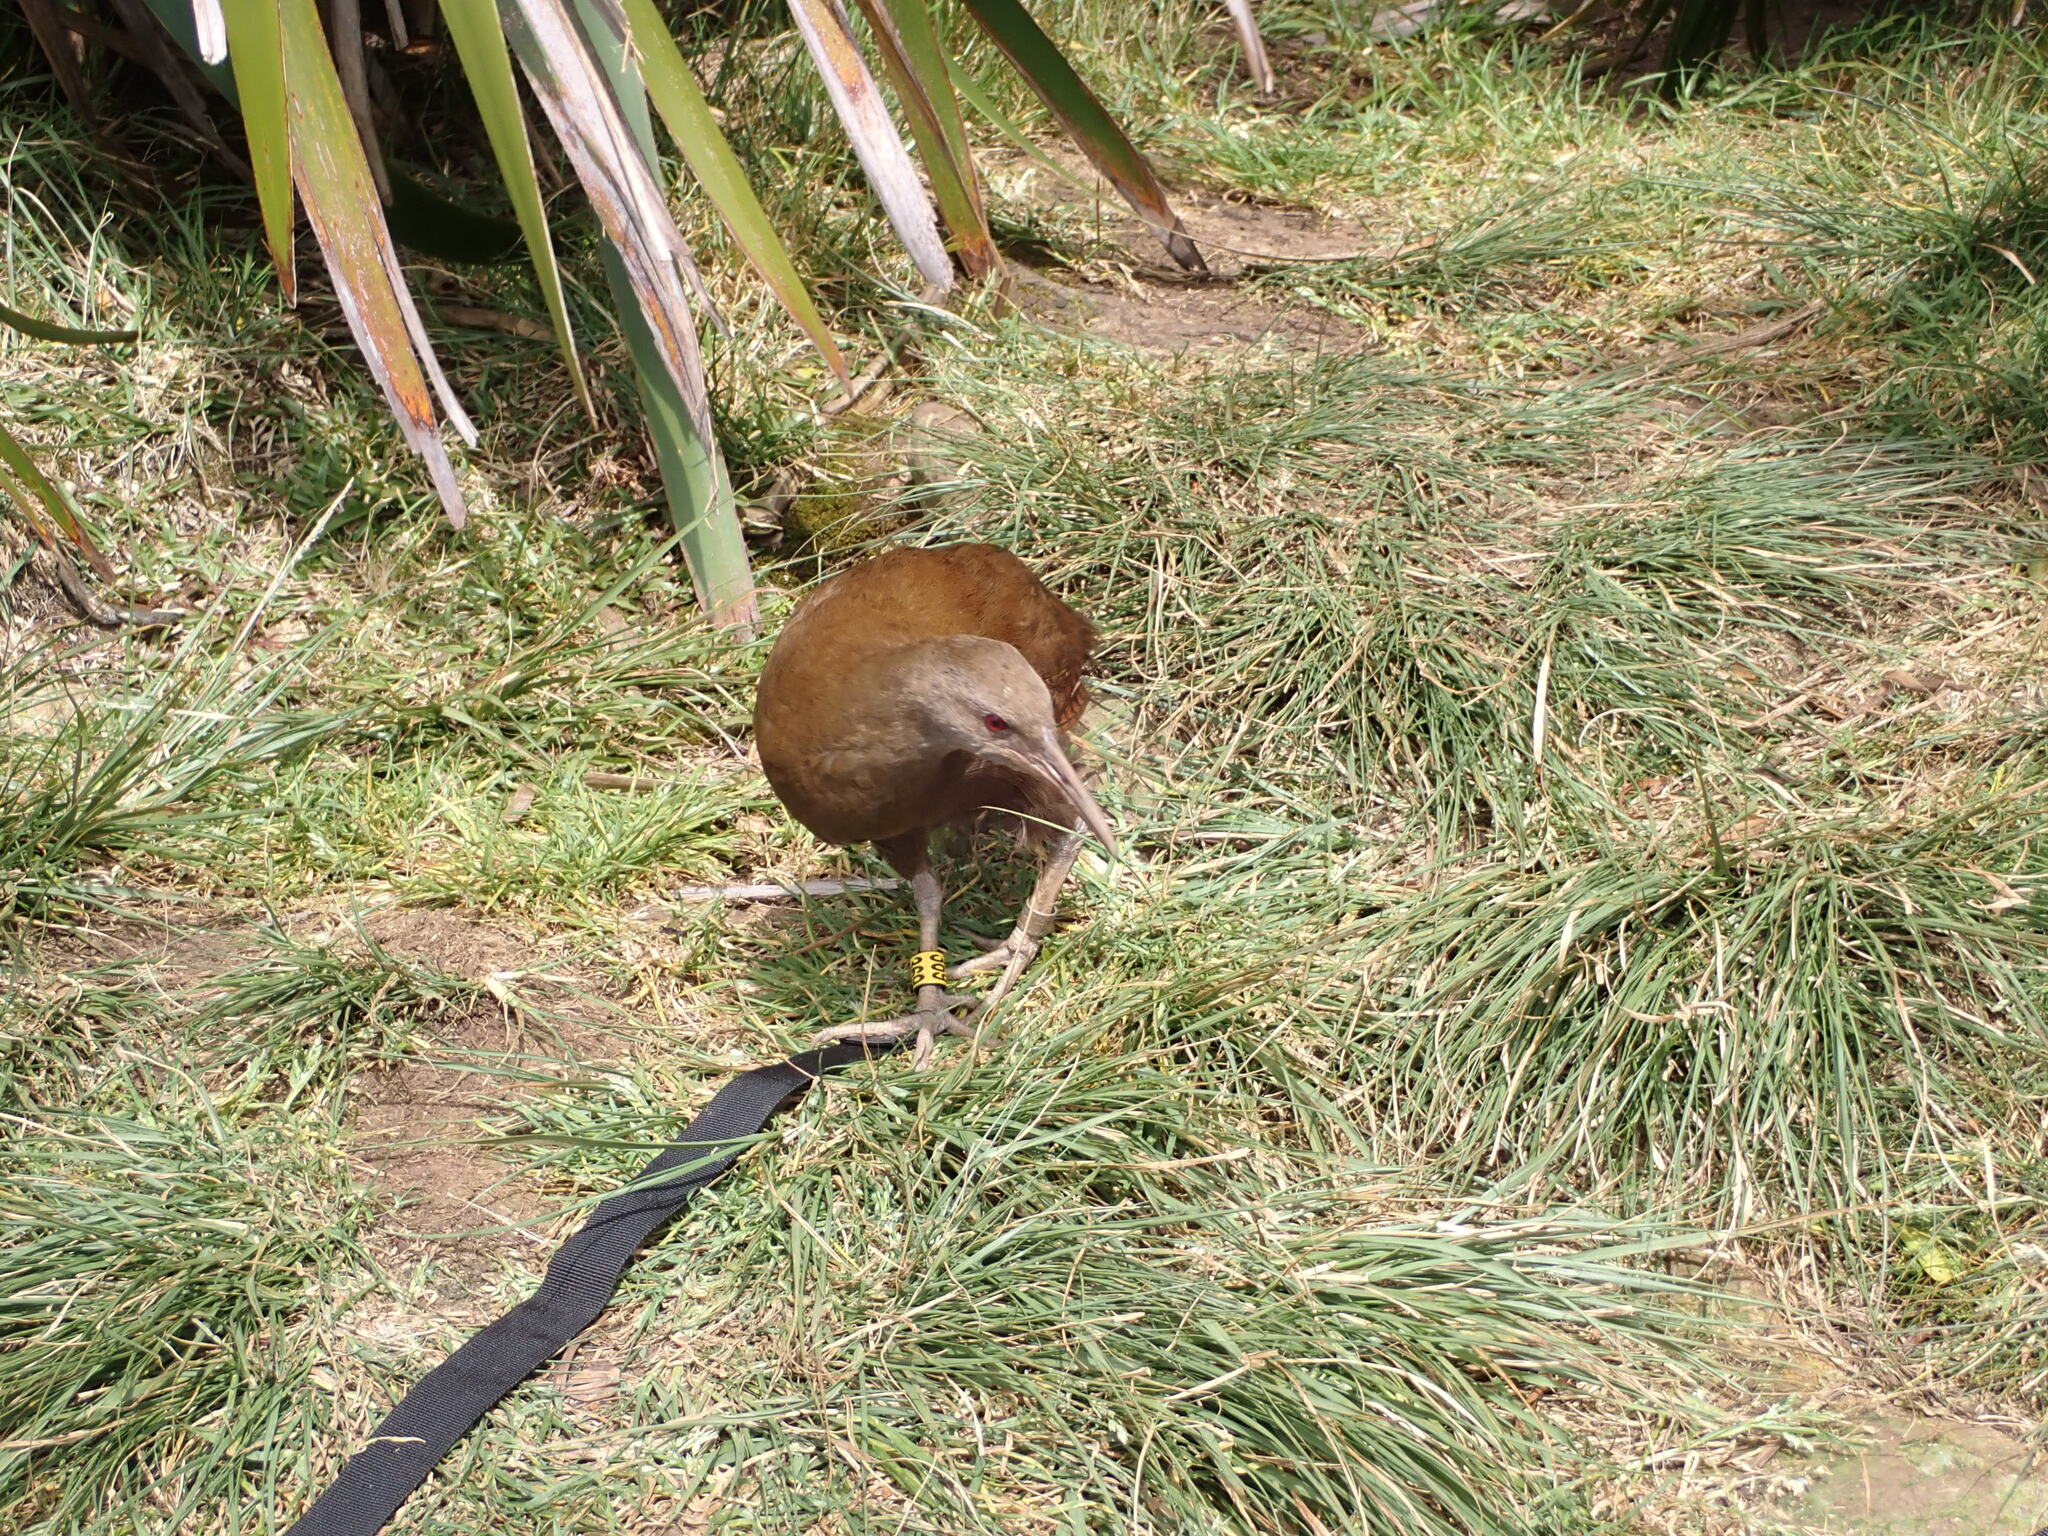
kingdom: Animalia
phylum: Chordata
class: Aves
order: Gruiformes
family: Rallidae
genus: Gallirallus
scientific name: Gallirallus sylvestris
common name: Lord howe woodhen
